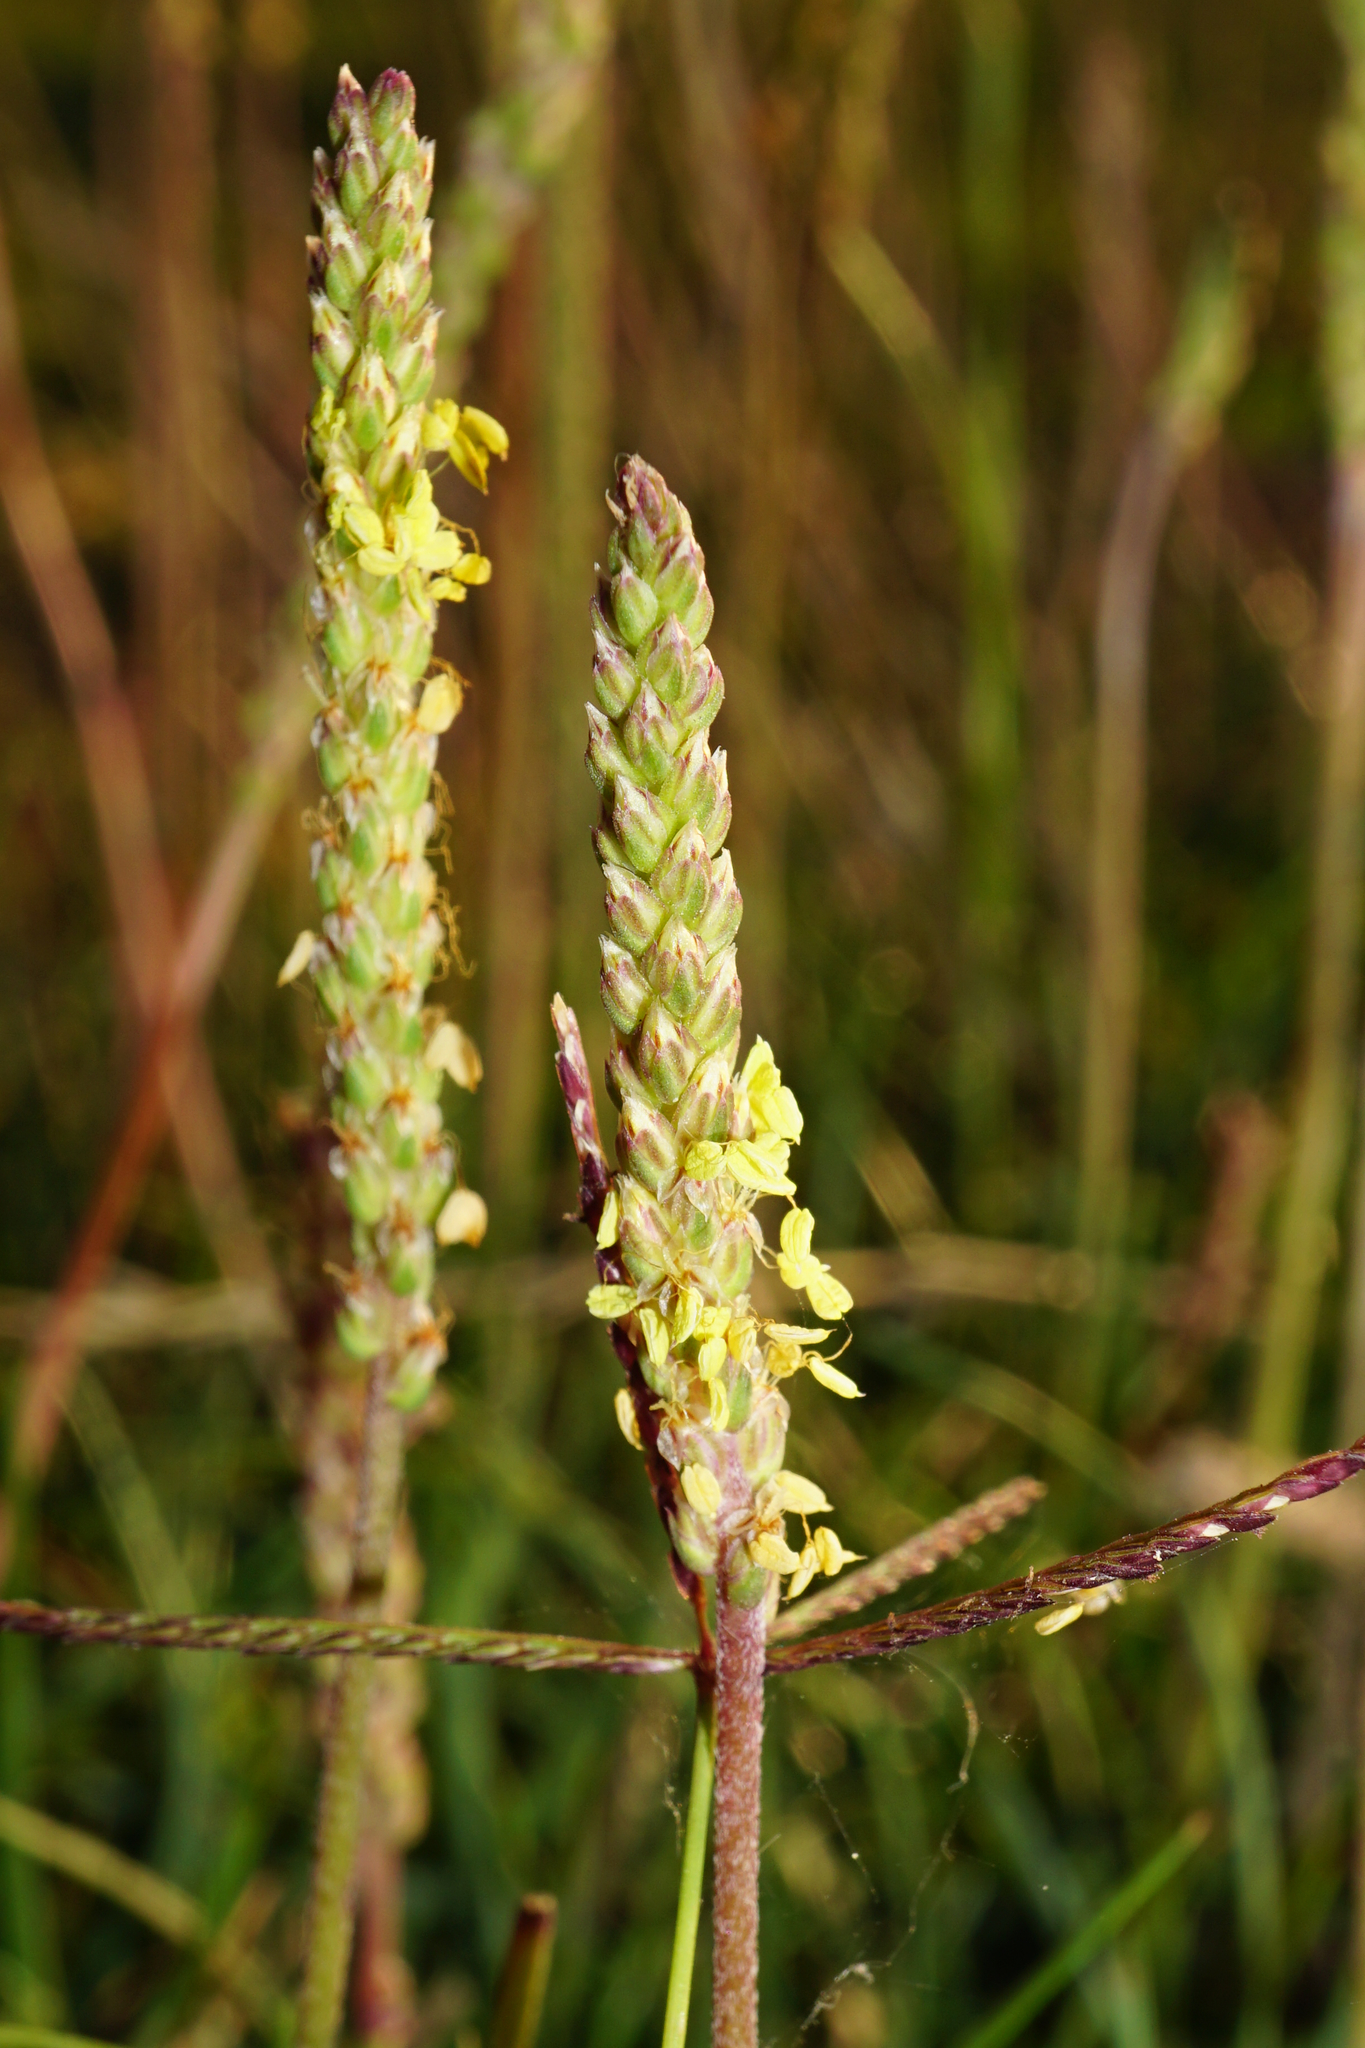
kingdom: Plantae
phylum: Tracheophyta
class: Magnoliopsida
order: Lamiales
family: Plantaginaceae
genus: Plantago
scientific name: Plantago maritima
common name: Sea plantain
